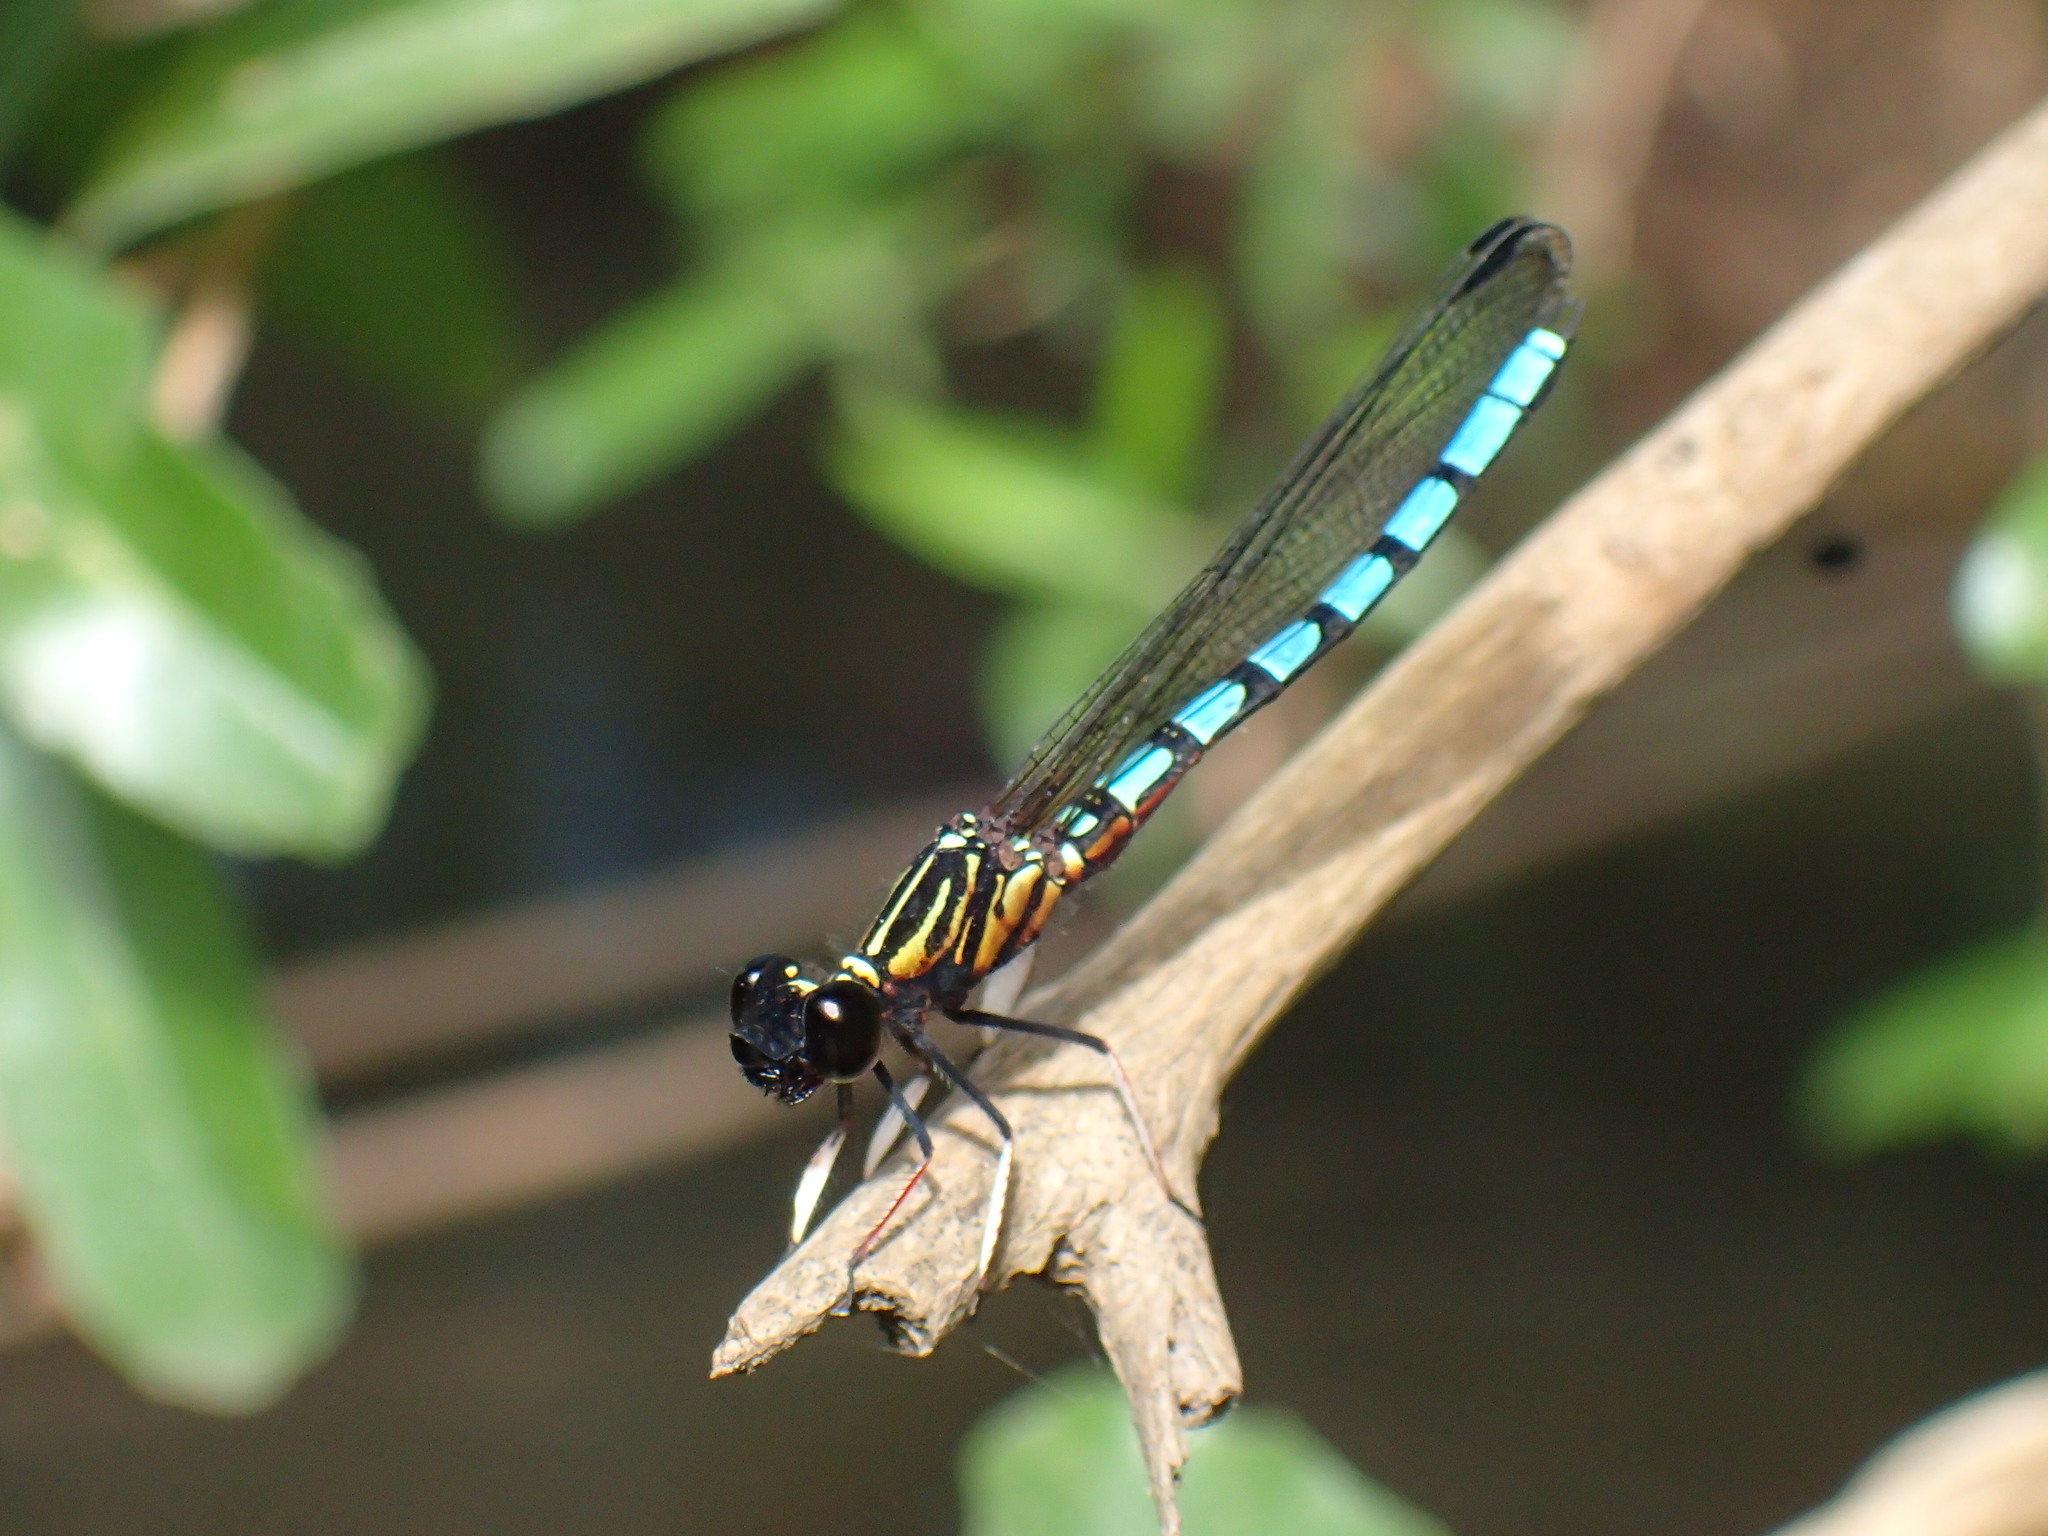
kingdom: Animalia
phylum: Arthropoda
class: Insecta
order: Odonata
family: Chlorocyphidae
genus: Platycypha
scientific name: Platycypha lacustris
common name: Forest jewel
